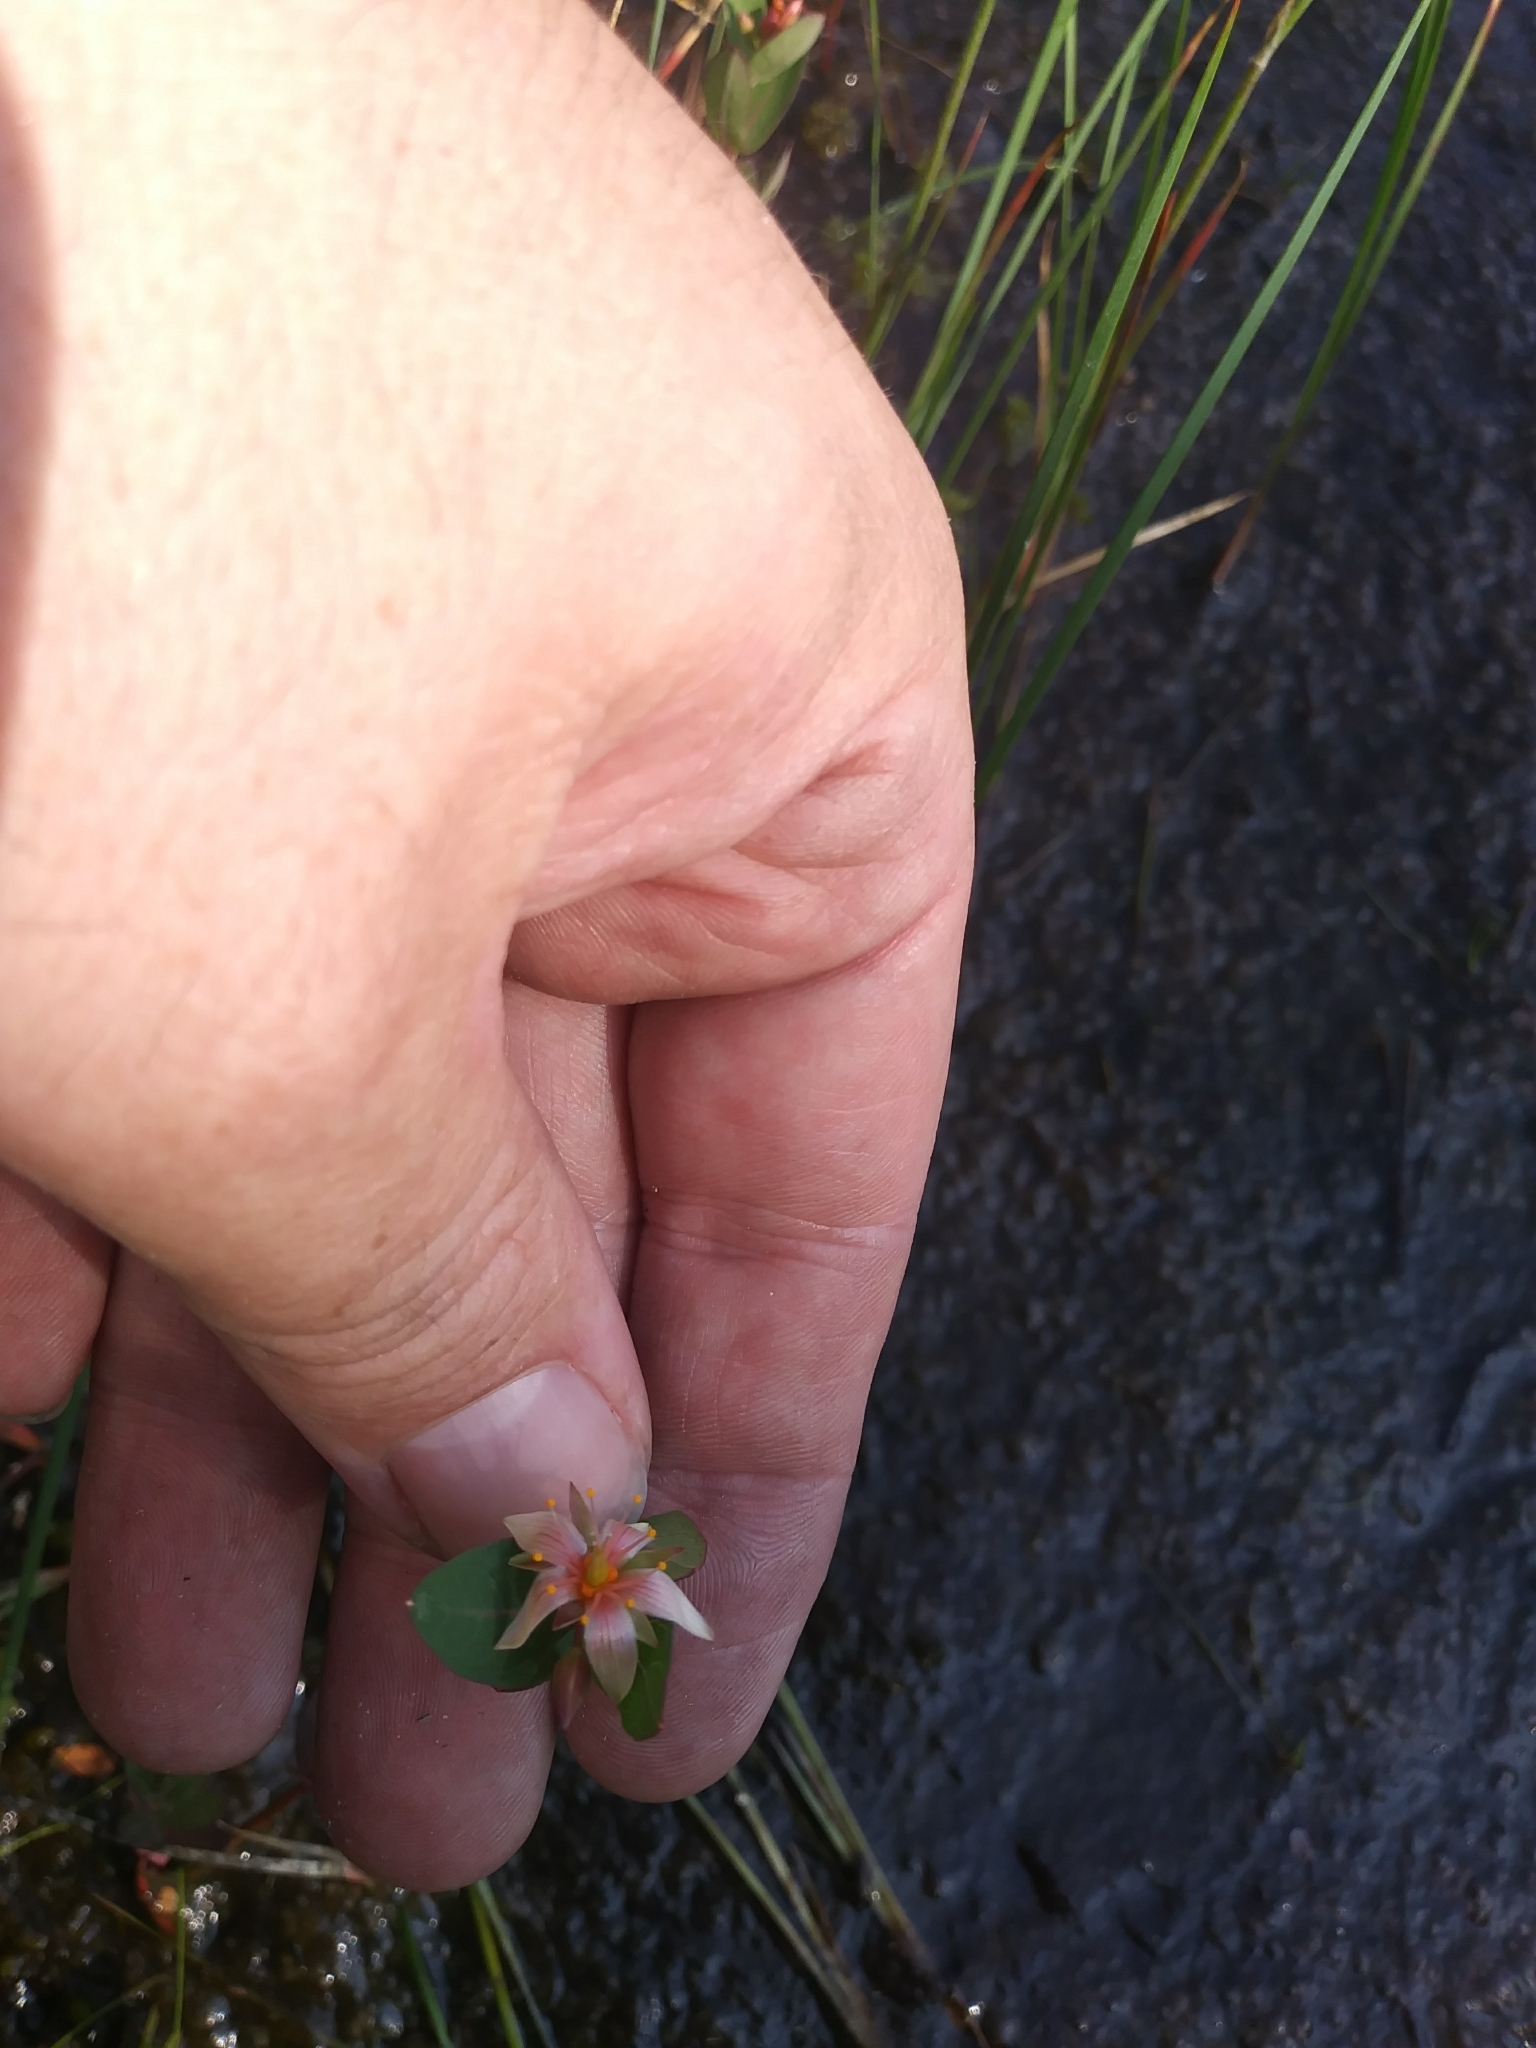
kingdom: Plantae
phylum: Tracheophyta
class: Magnoliopsida
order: Malpighiales
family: Hypericaceae
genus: Triadenum
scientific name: Triadenum virginicum
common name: Marsh st. john's-wort
